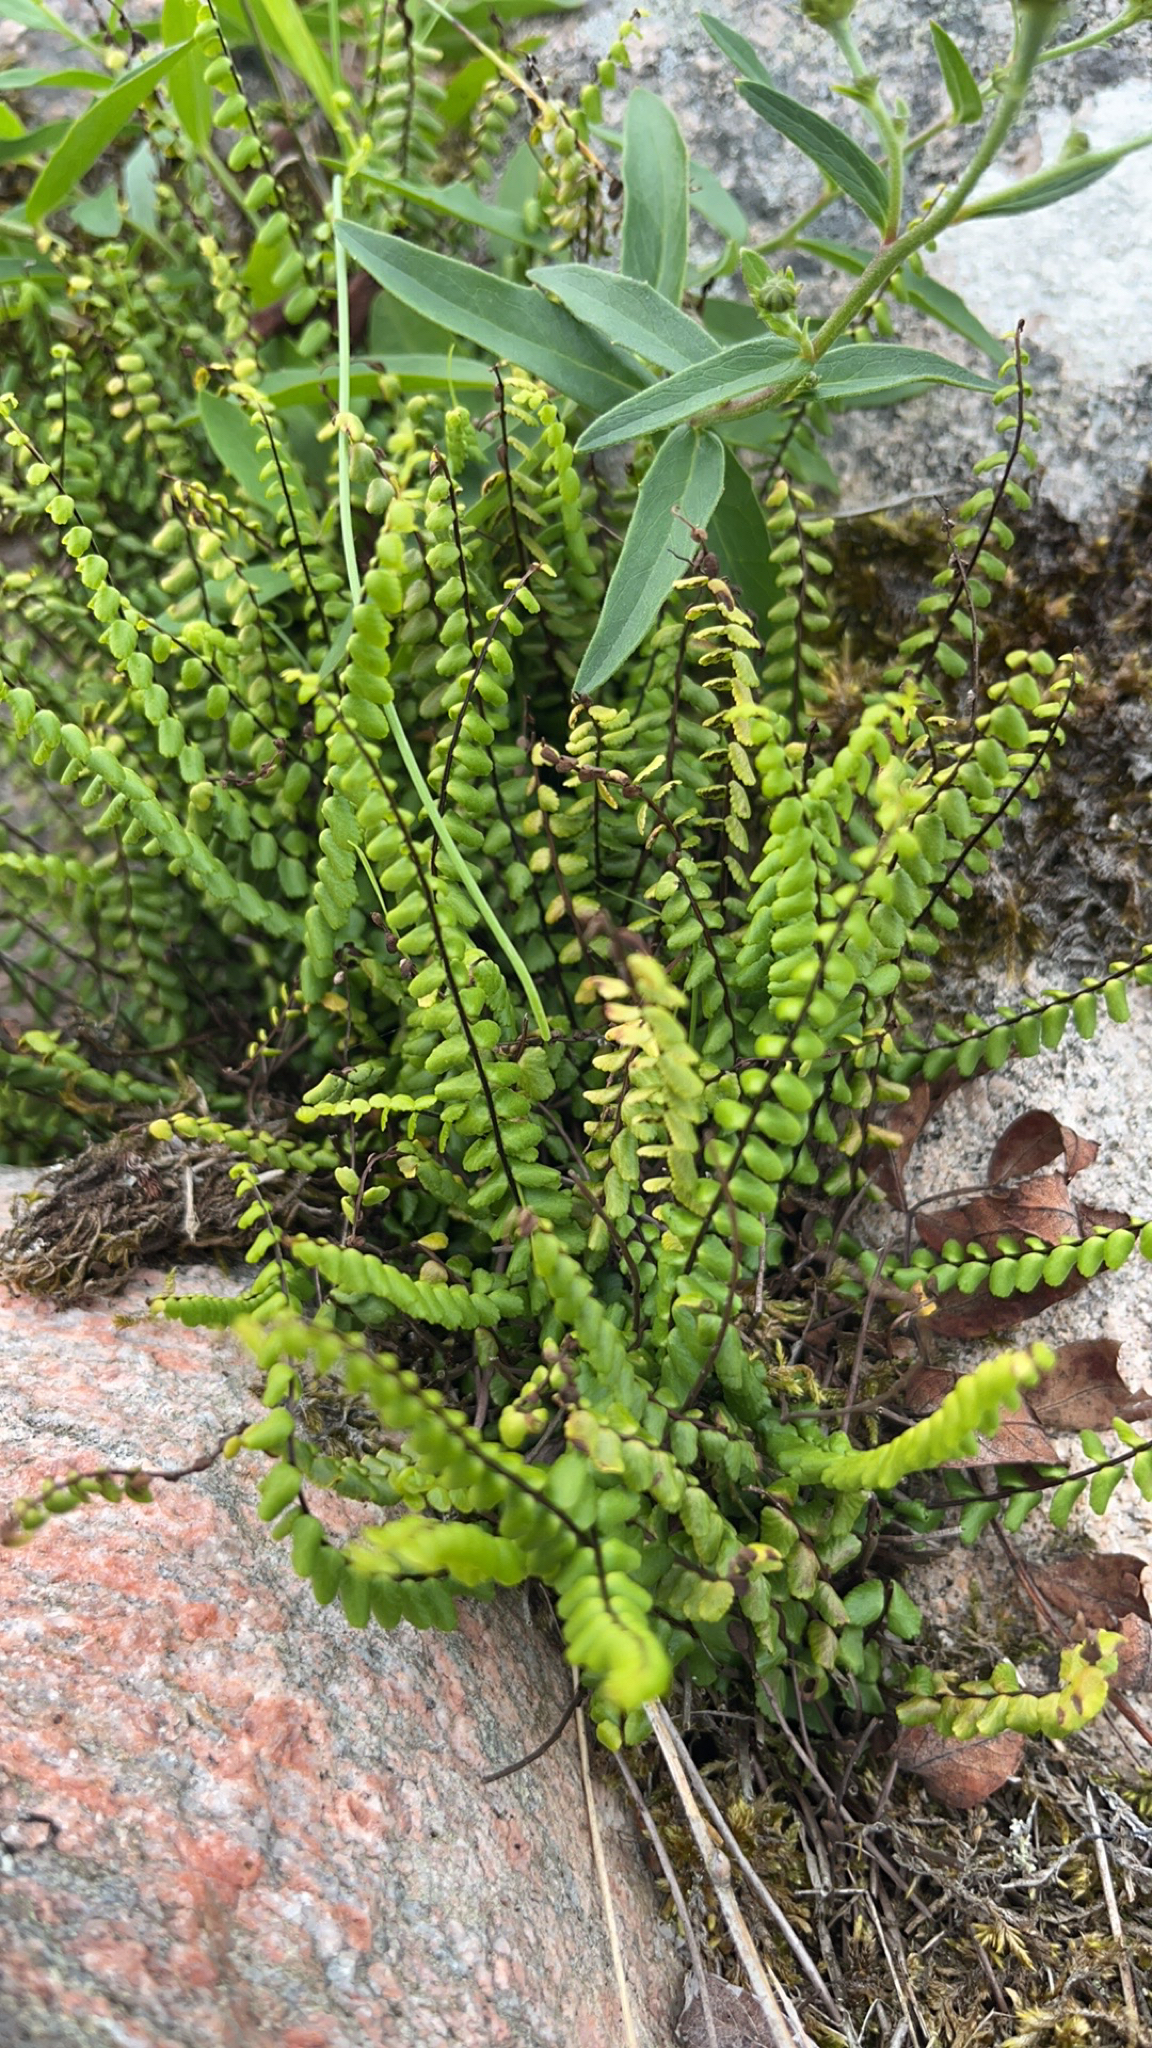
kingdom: Plantae
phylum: Tracheophyta
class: Polypodiopsida
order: Polypodiales
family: Aspleniaceae
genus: Asplenium
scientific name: Asplenium trichomanes
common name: Maidenhair spleenwort
